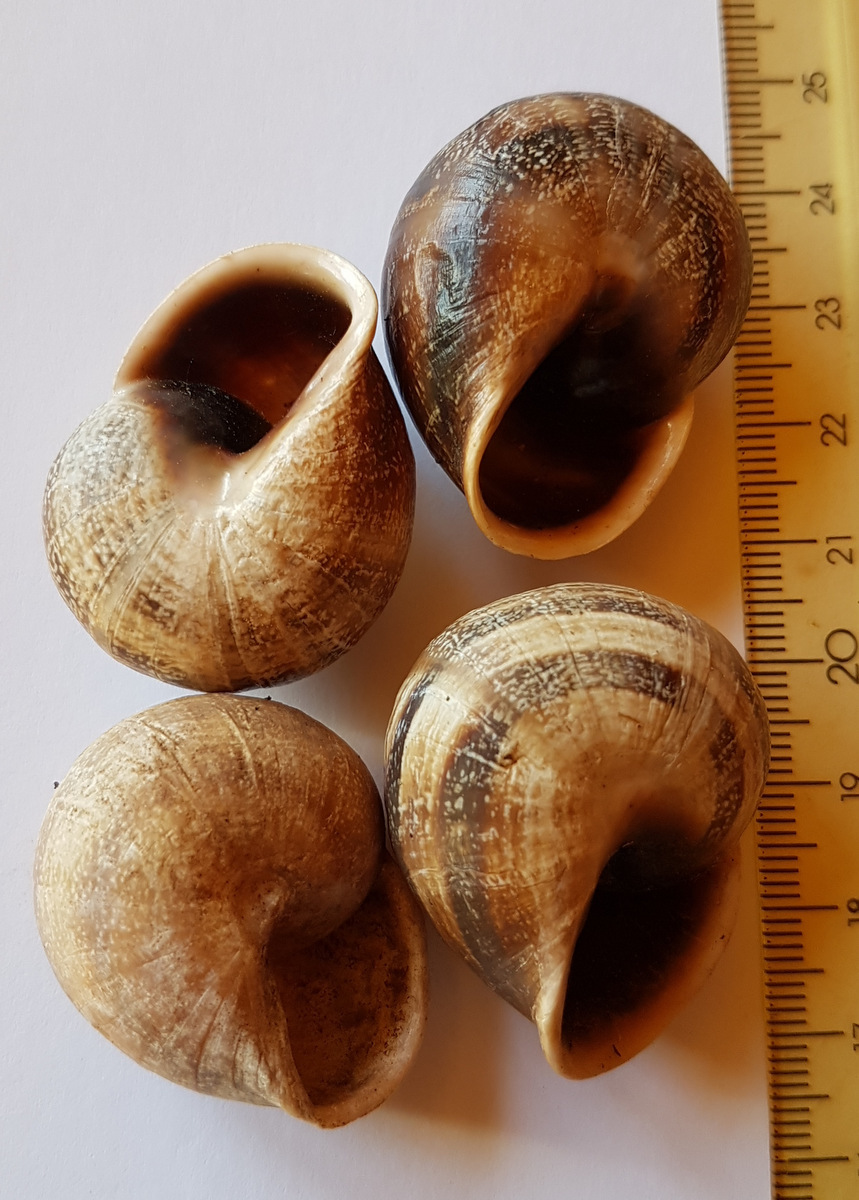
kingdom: Animalia
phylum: Mollusca
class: Gastropoda
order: Stylommatophora
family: Helicidae
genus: Otala
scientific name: Otala punctata
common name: Milk snail
